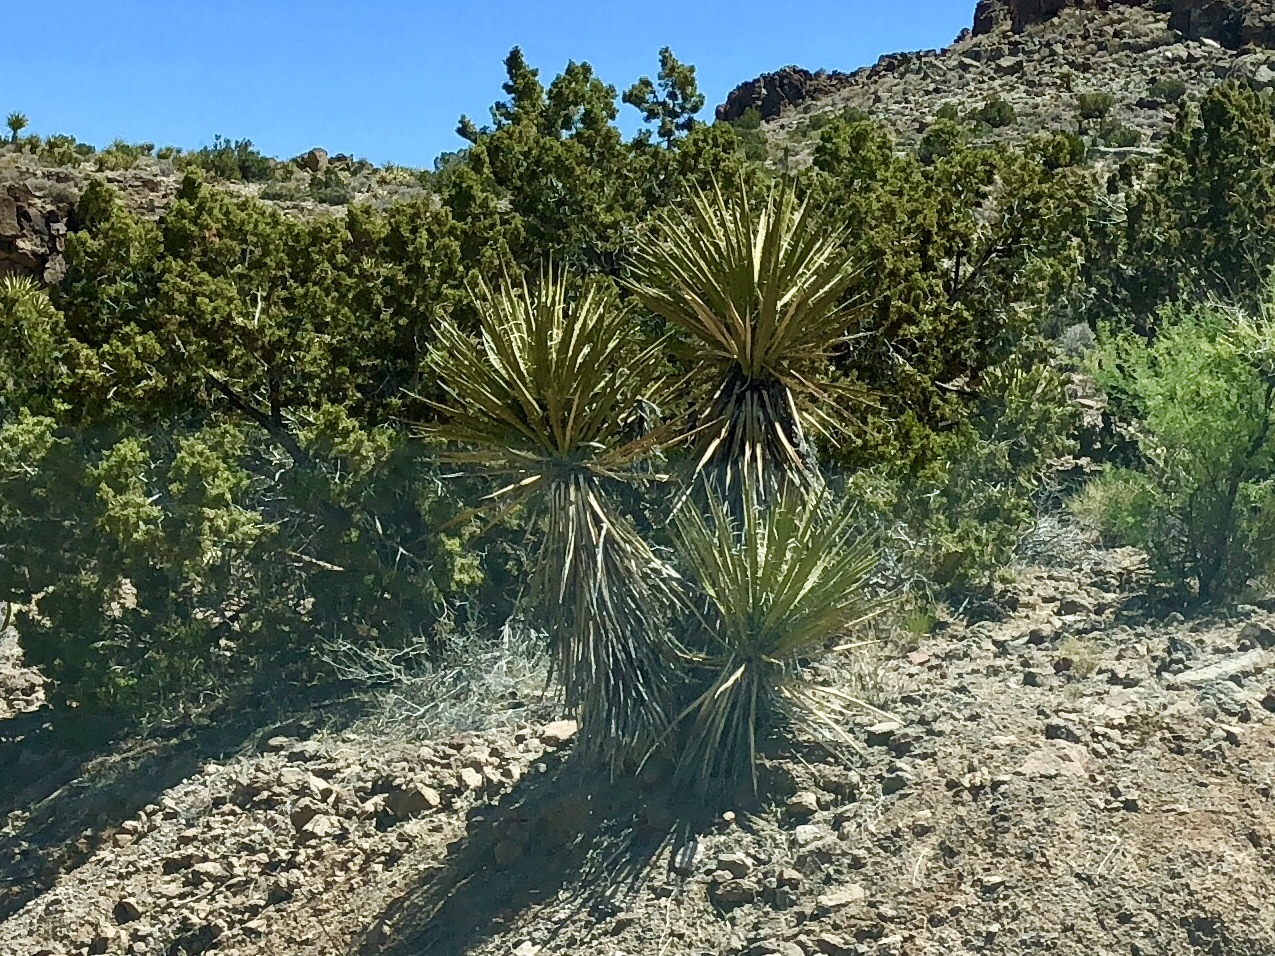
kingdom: Plantae
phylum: Tracheophyta
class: Liliopsida
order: Asparagales
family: Asparagaceae
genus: Yucca
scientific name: Yucca schidigera
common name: Mojave yucca
